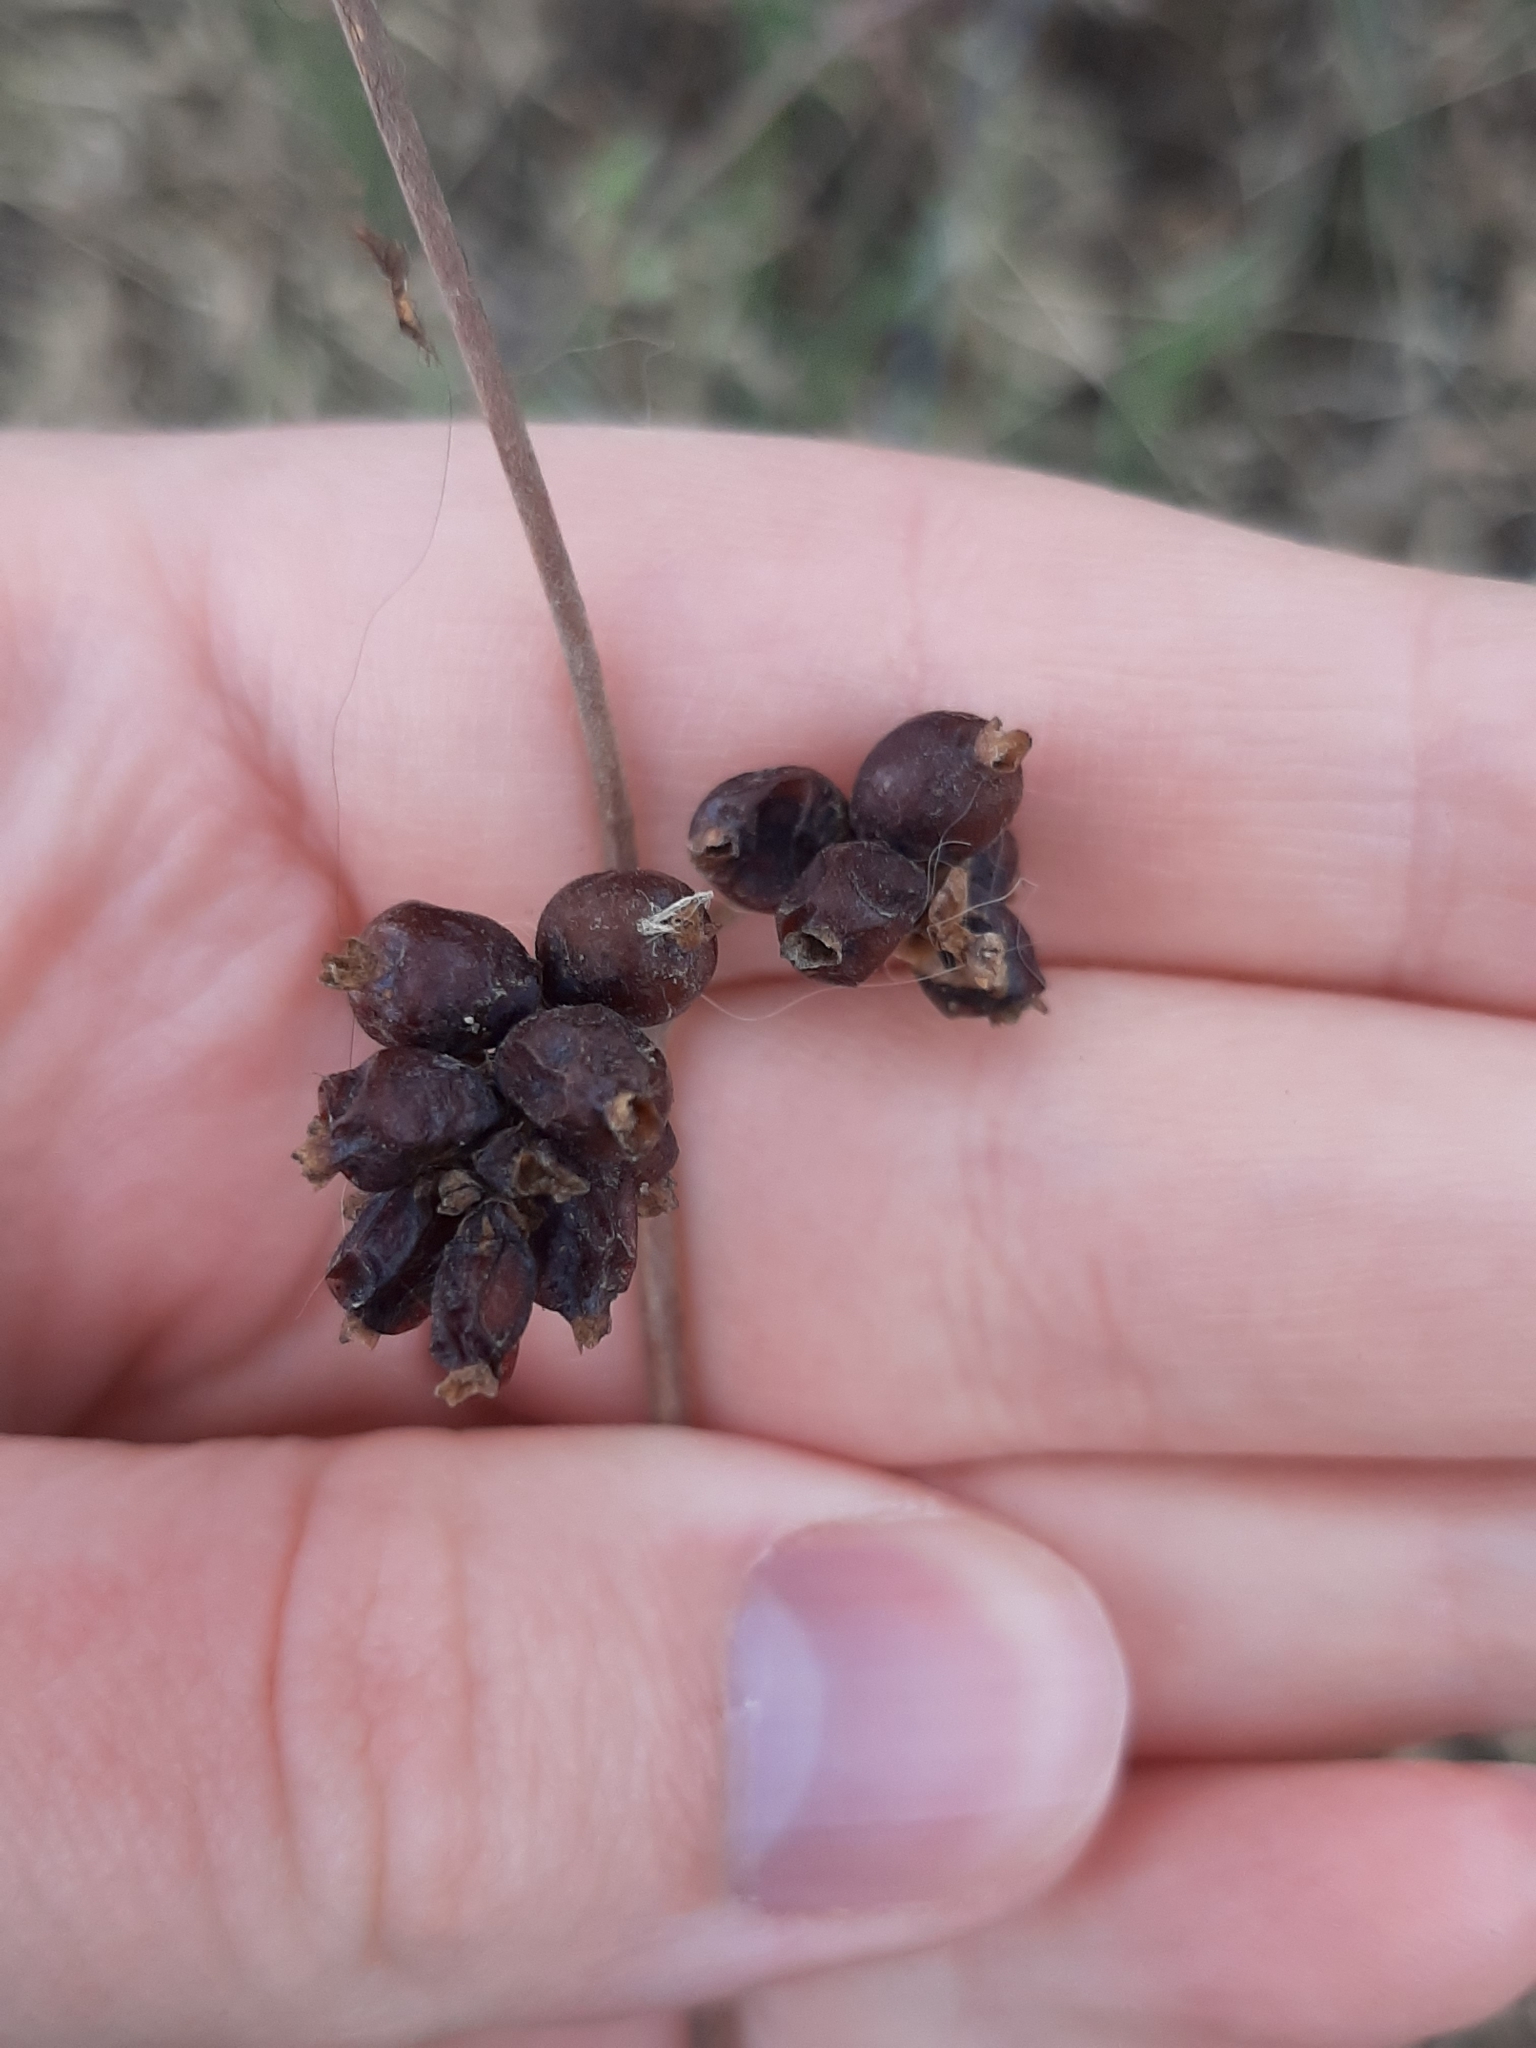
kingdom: Plantae
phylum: Tracheophyta
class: Magnoliopsida
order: Dipsacales
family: Caprifoliaceae
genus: Symphoricarpos
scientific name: Symphoricarpos occidentalis
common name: Wolfberry
